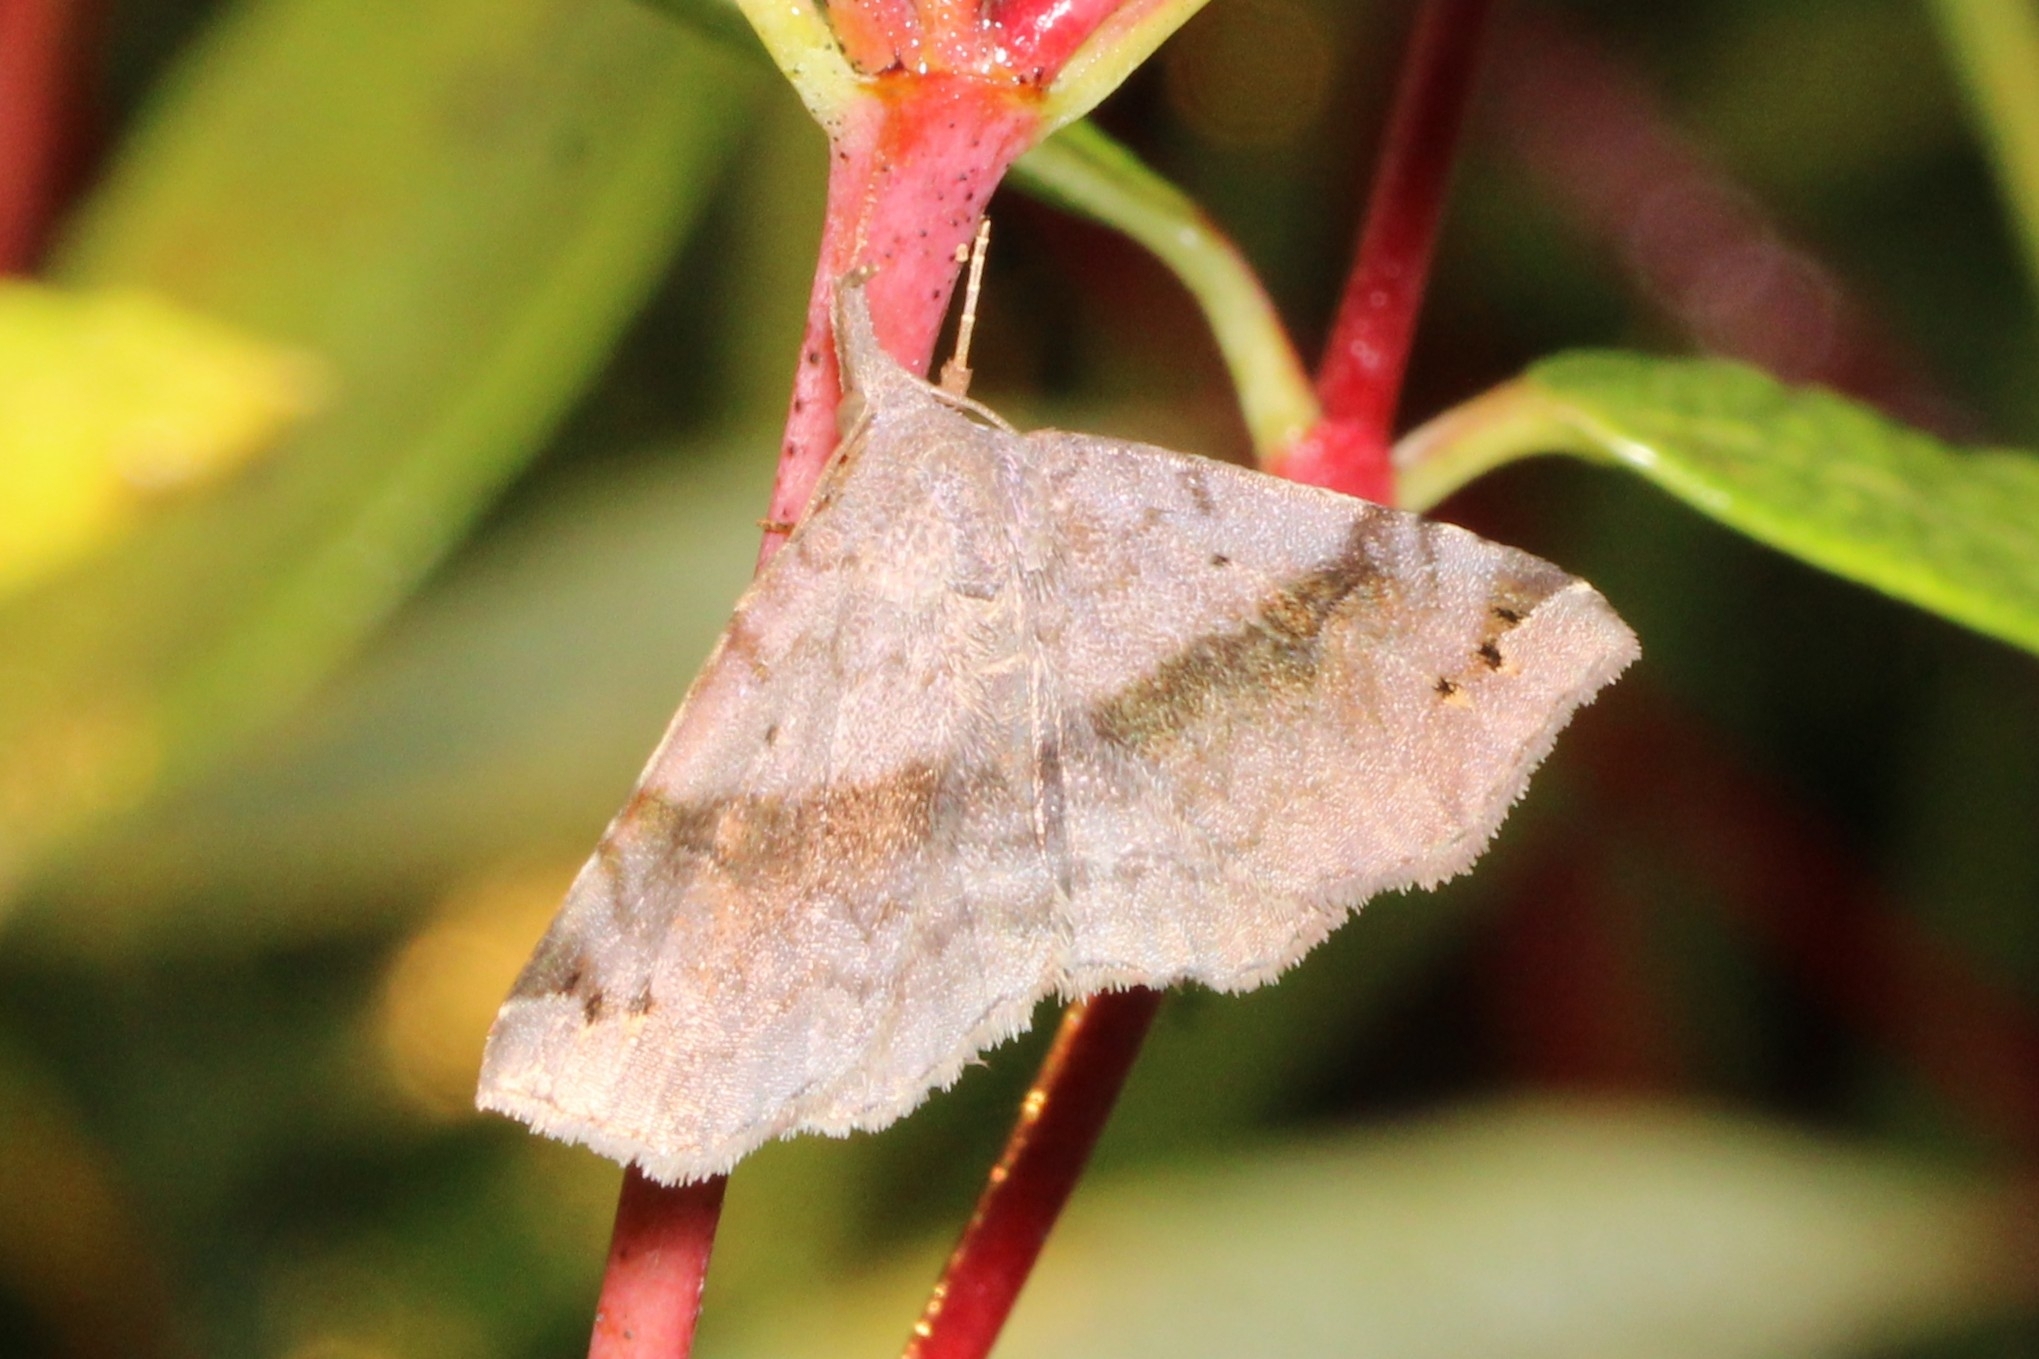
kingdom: Animalia
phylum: Arthropoda
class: Insecta
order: Lepidoptera
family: Erebidae
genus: Spargaloma
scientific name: Spargaloma sexpunctata
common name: Six-spotted gray
